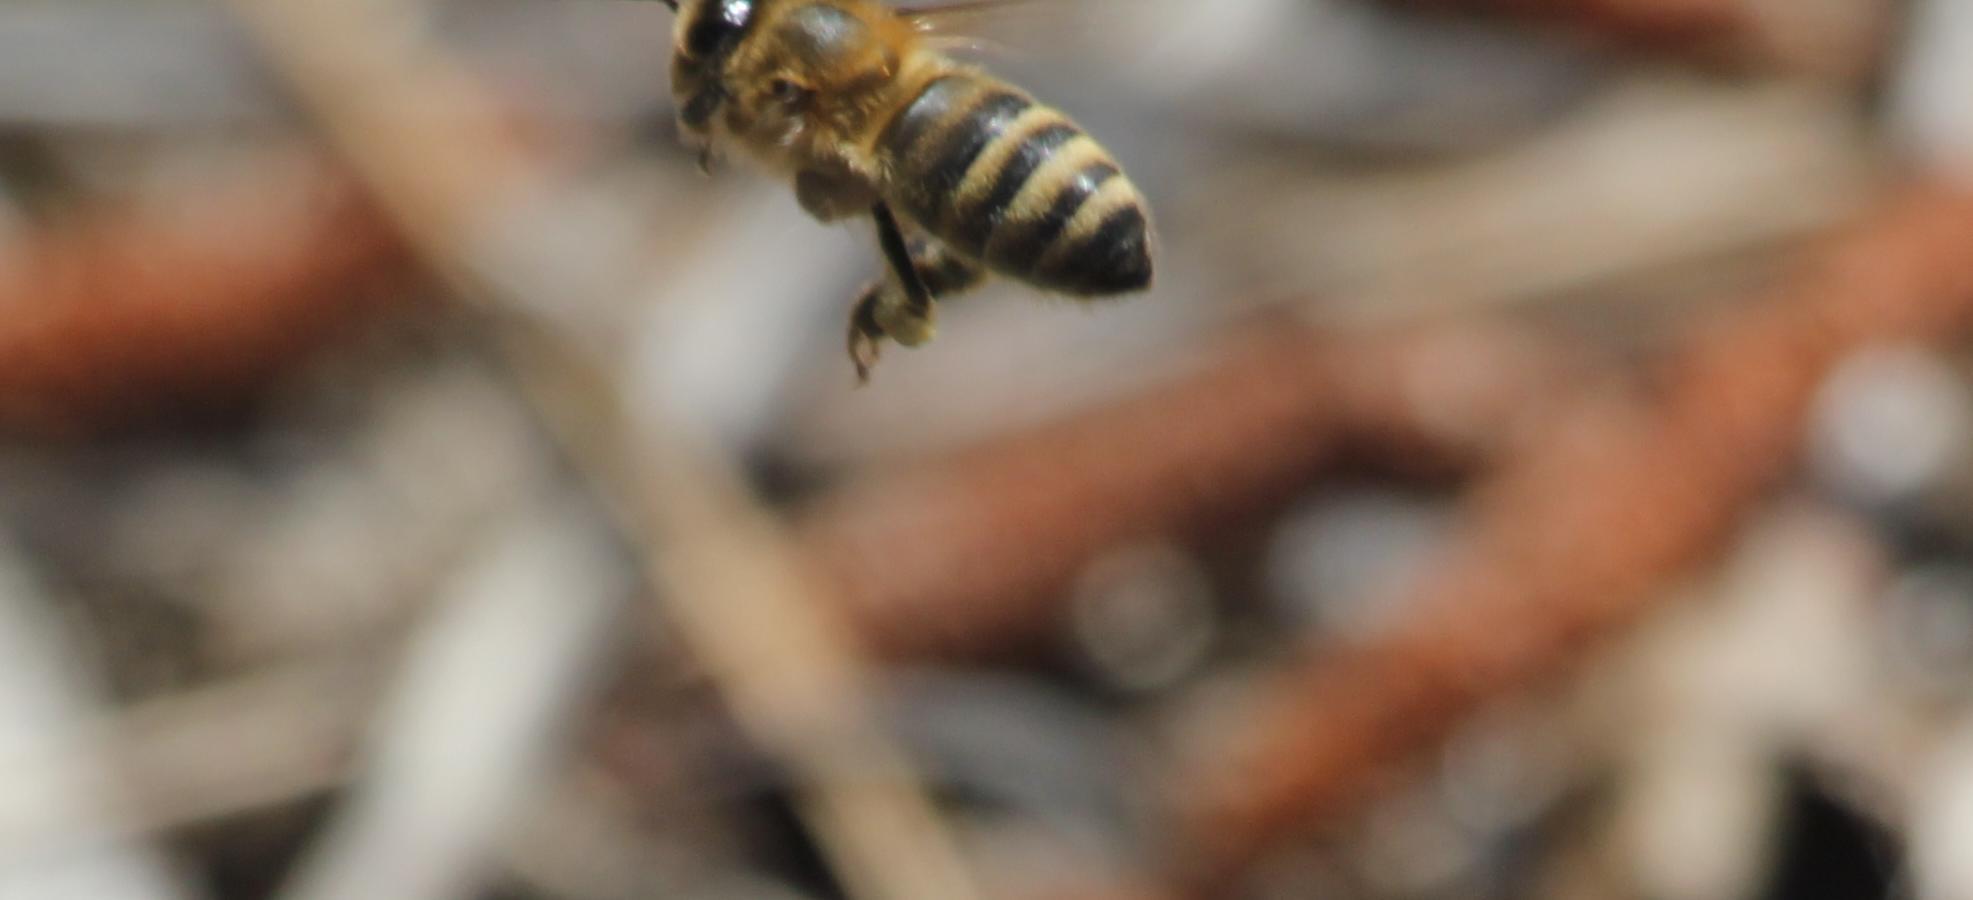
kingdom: Animalia
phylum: Arthropoda
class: Insecta
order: Hymenoptera
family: Apidae
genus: Apis
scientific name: Apis mellifera
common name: Honey bee
